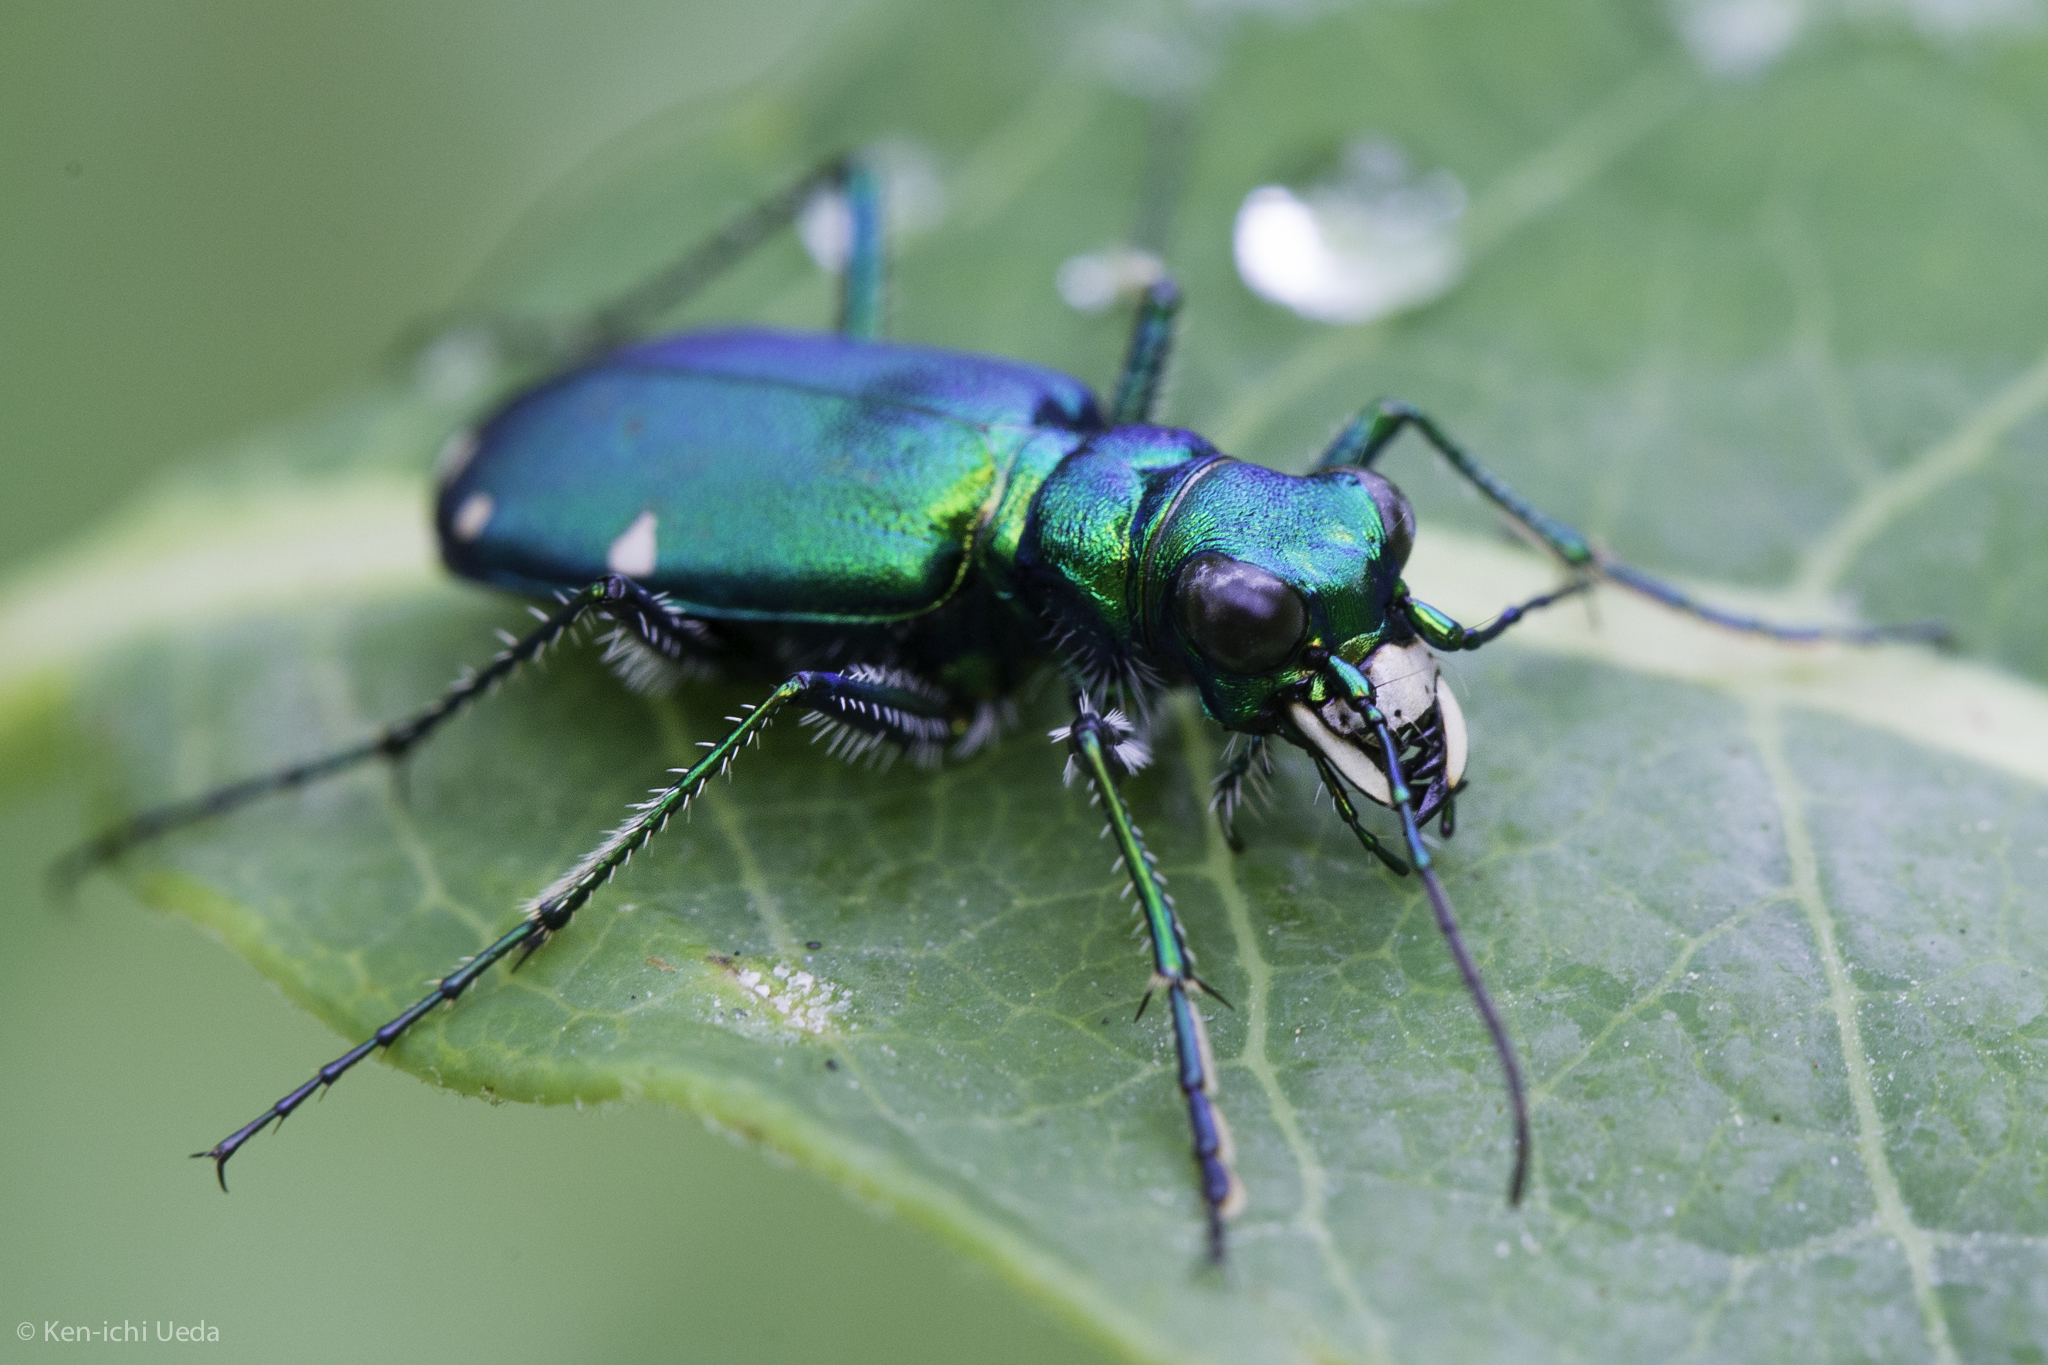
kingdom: Animalia
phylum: Arthropoda
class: Insecta
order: Coleoptera
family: Carabidae
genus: Cicindela
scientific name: Cicindela sexguttata
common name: Six-spotted tiger beetle
